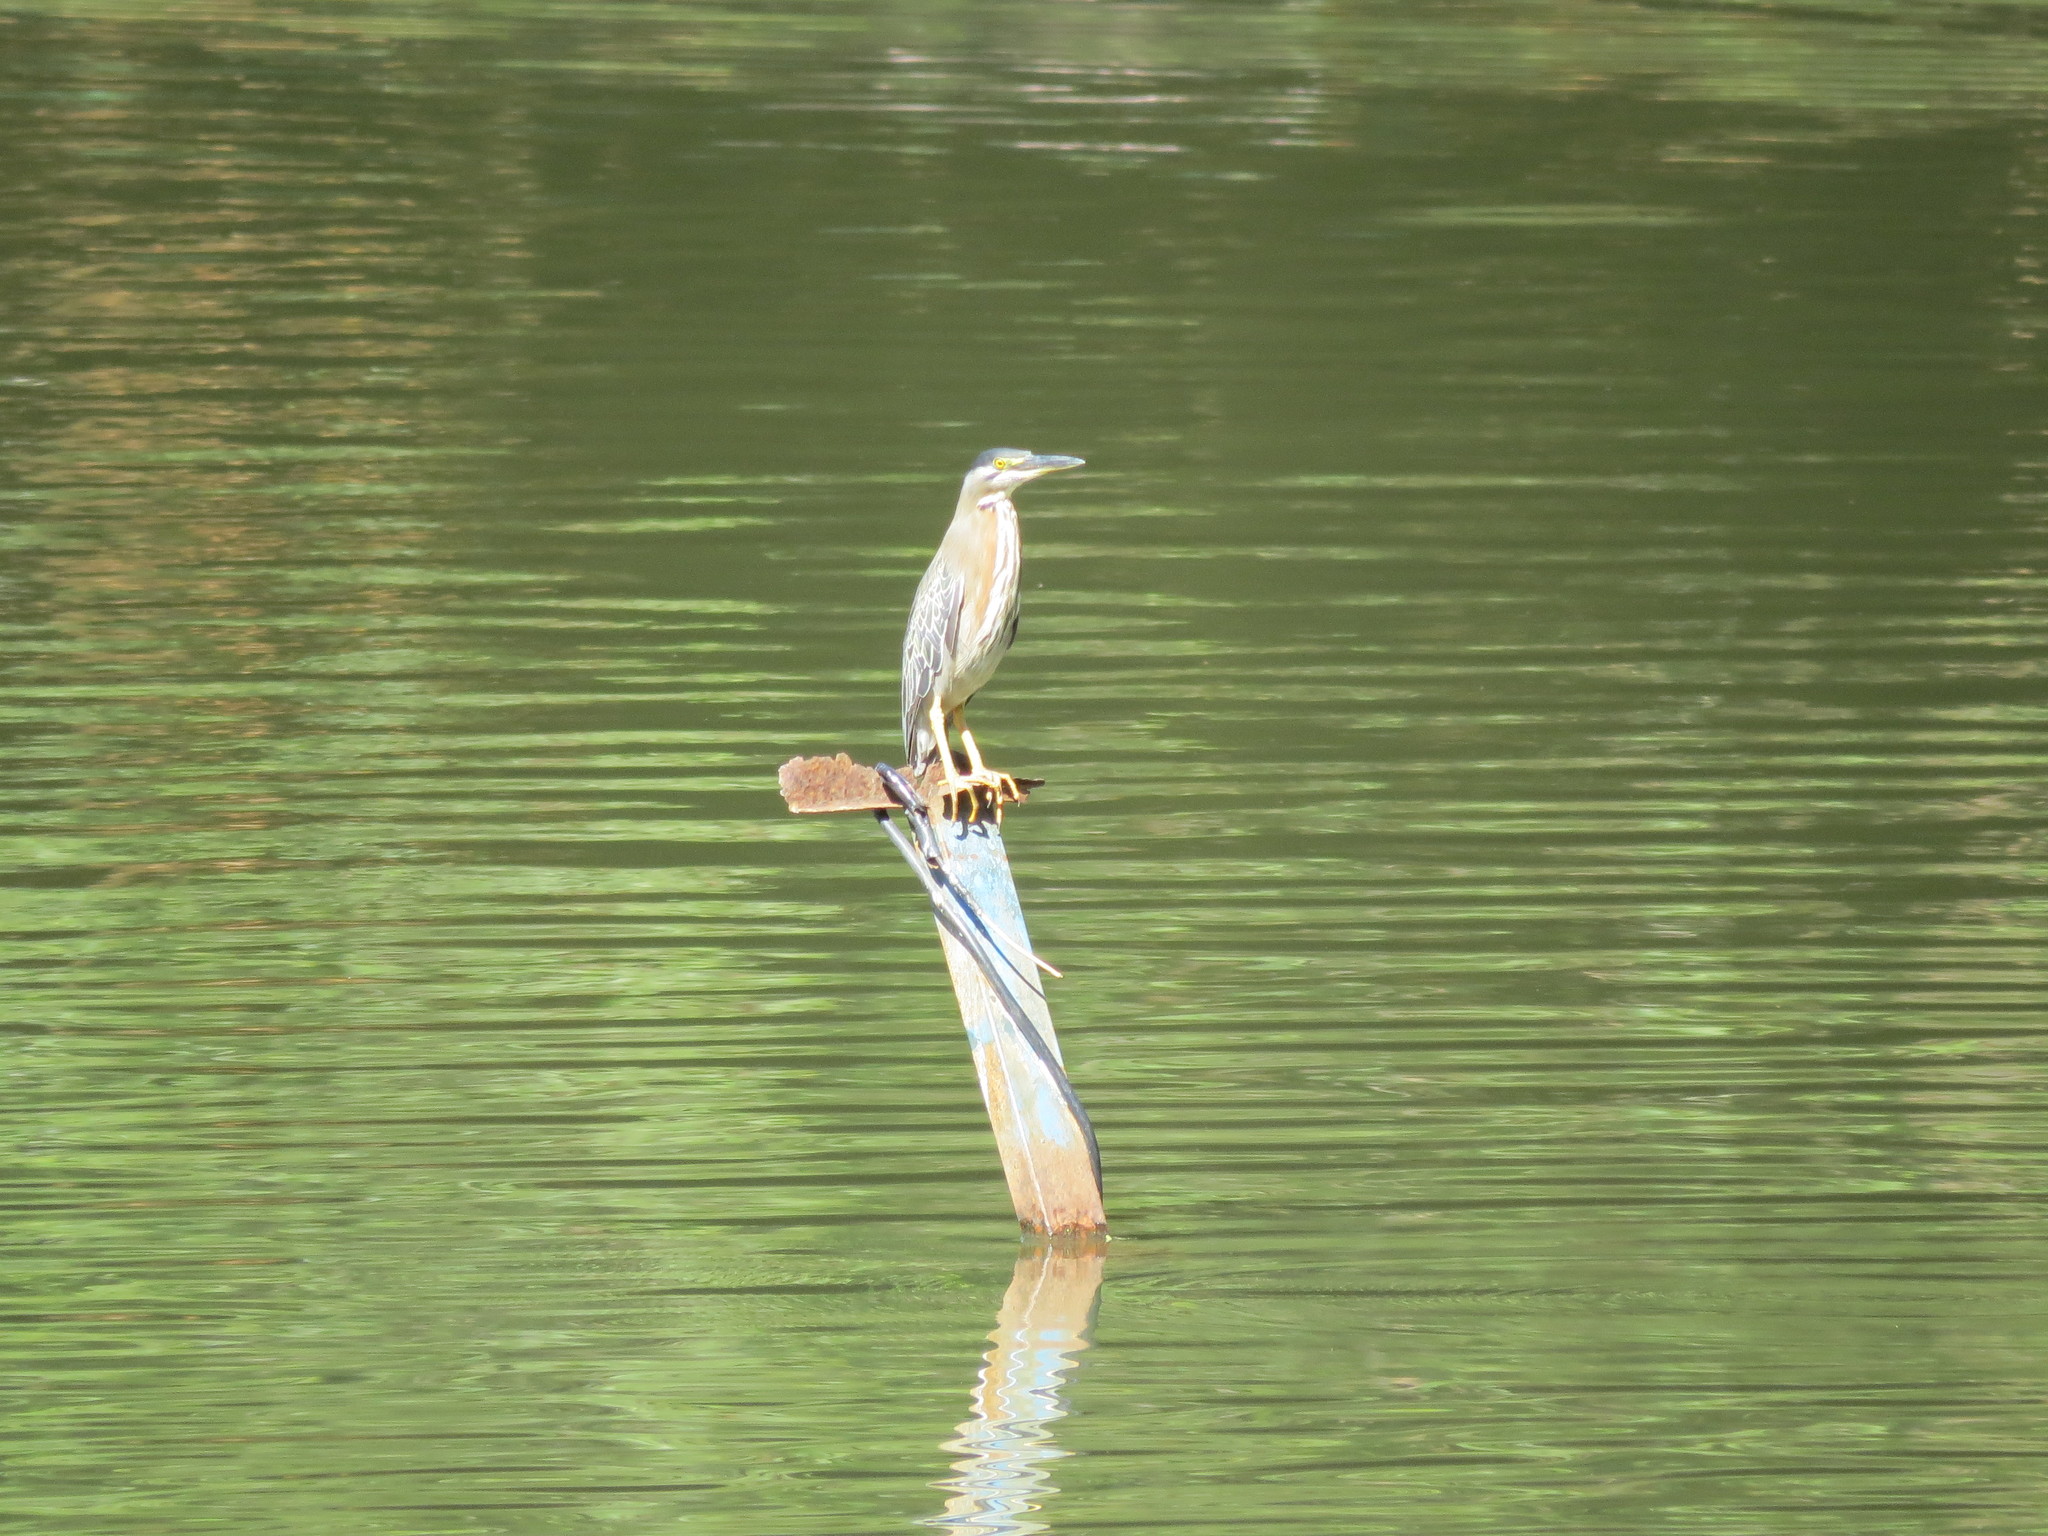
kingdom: Animalia
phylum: Chordata
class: Aves
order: Pelecaniformes
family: Ardeidae
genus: Butorides
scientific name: Butorides striata
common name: Striated heron
